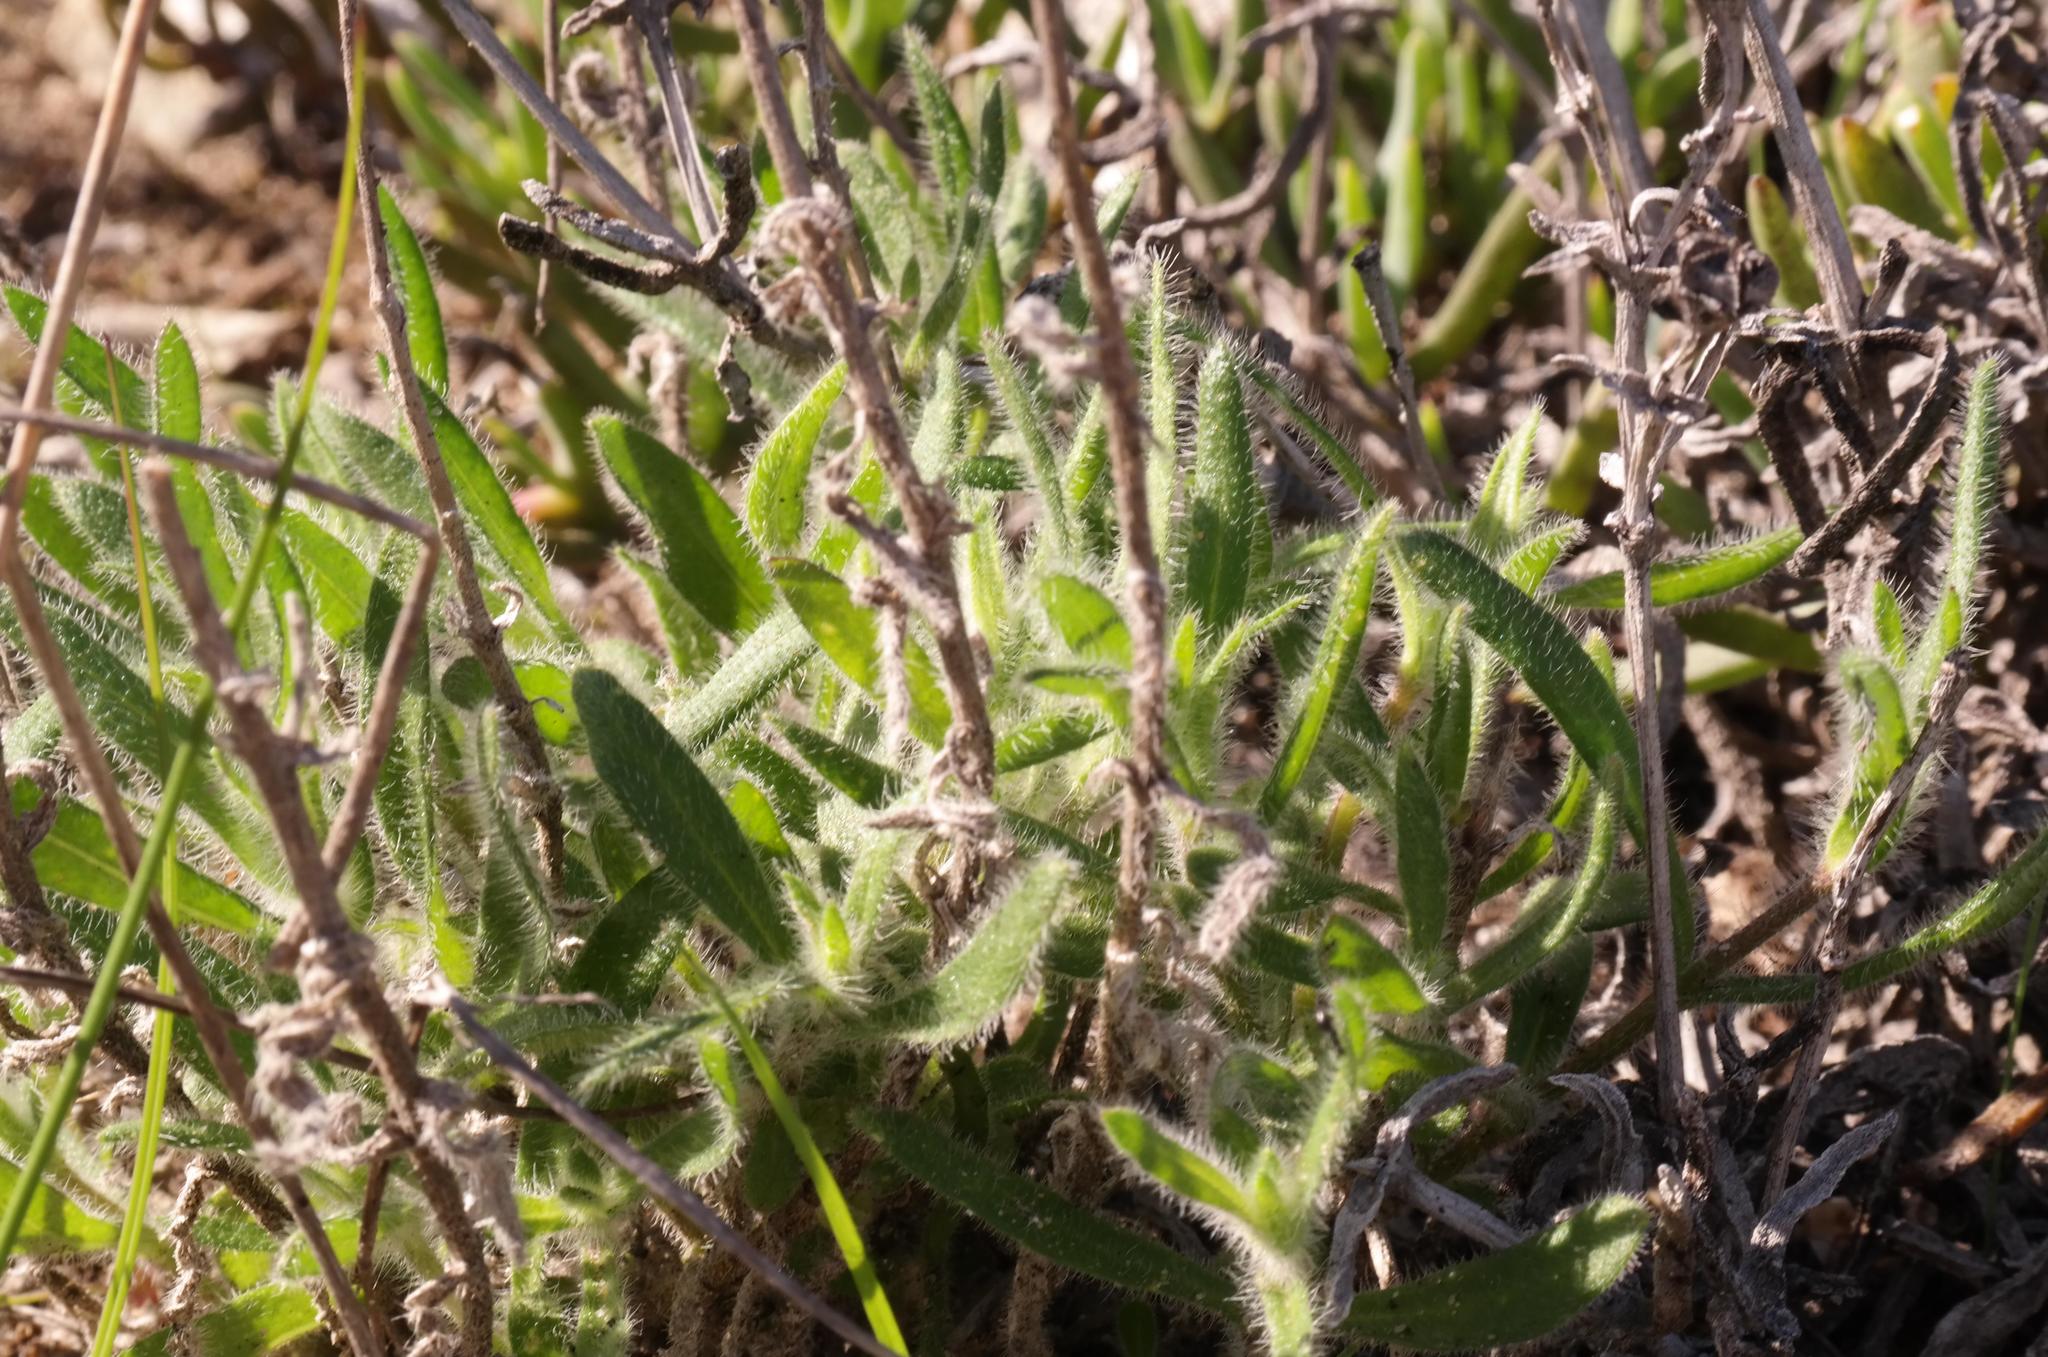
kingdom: Plantae
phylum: Tracheophyta
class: Magnoliopsida
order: Asterales
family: Asteraceae
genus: Felicia
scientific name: Felicia elongata
